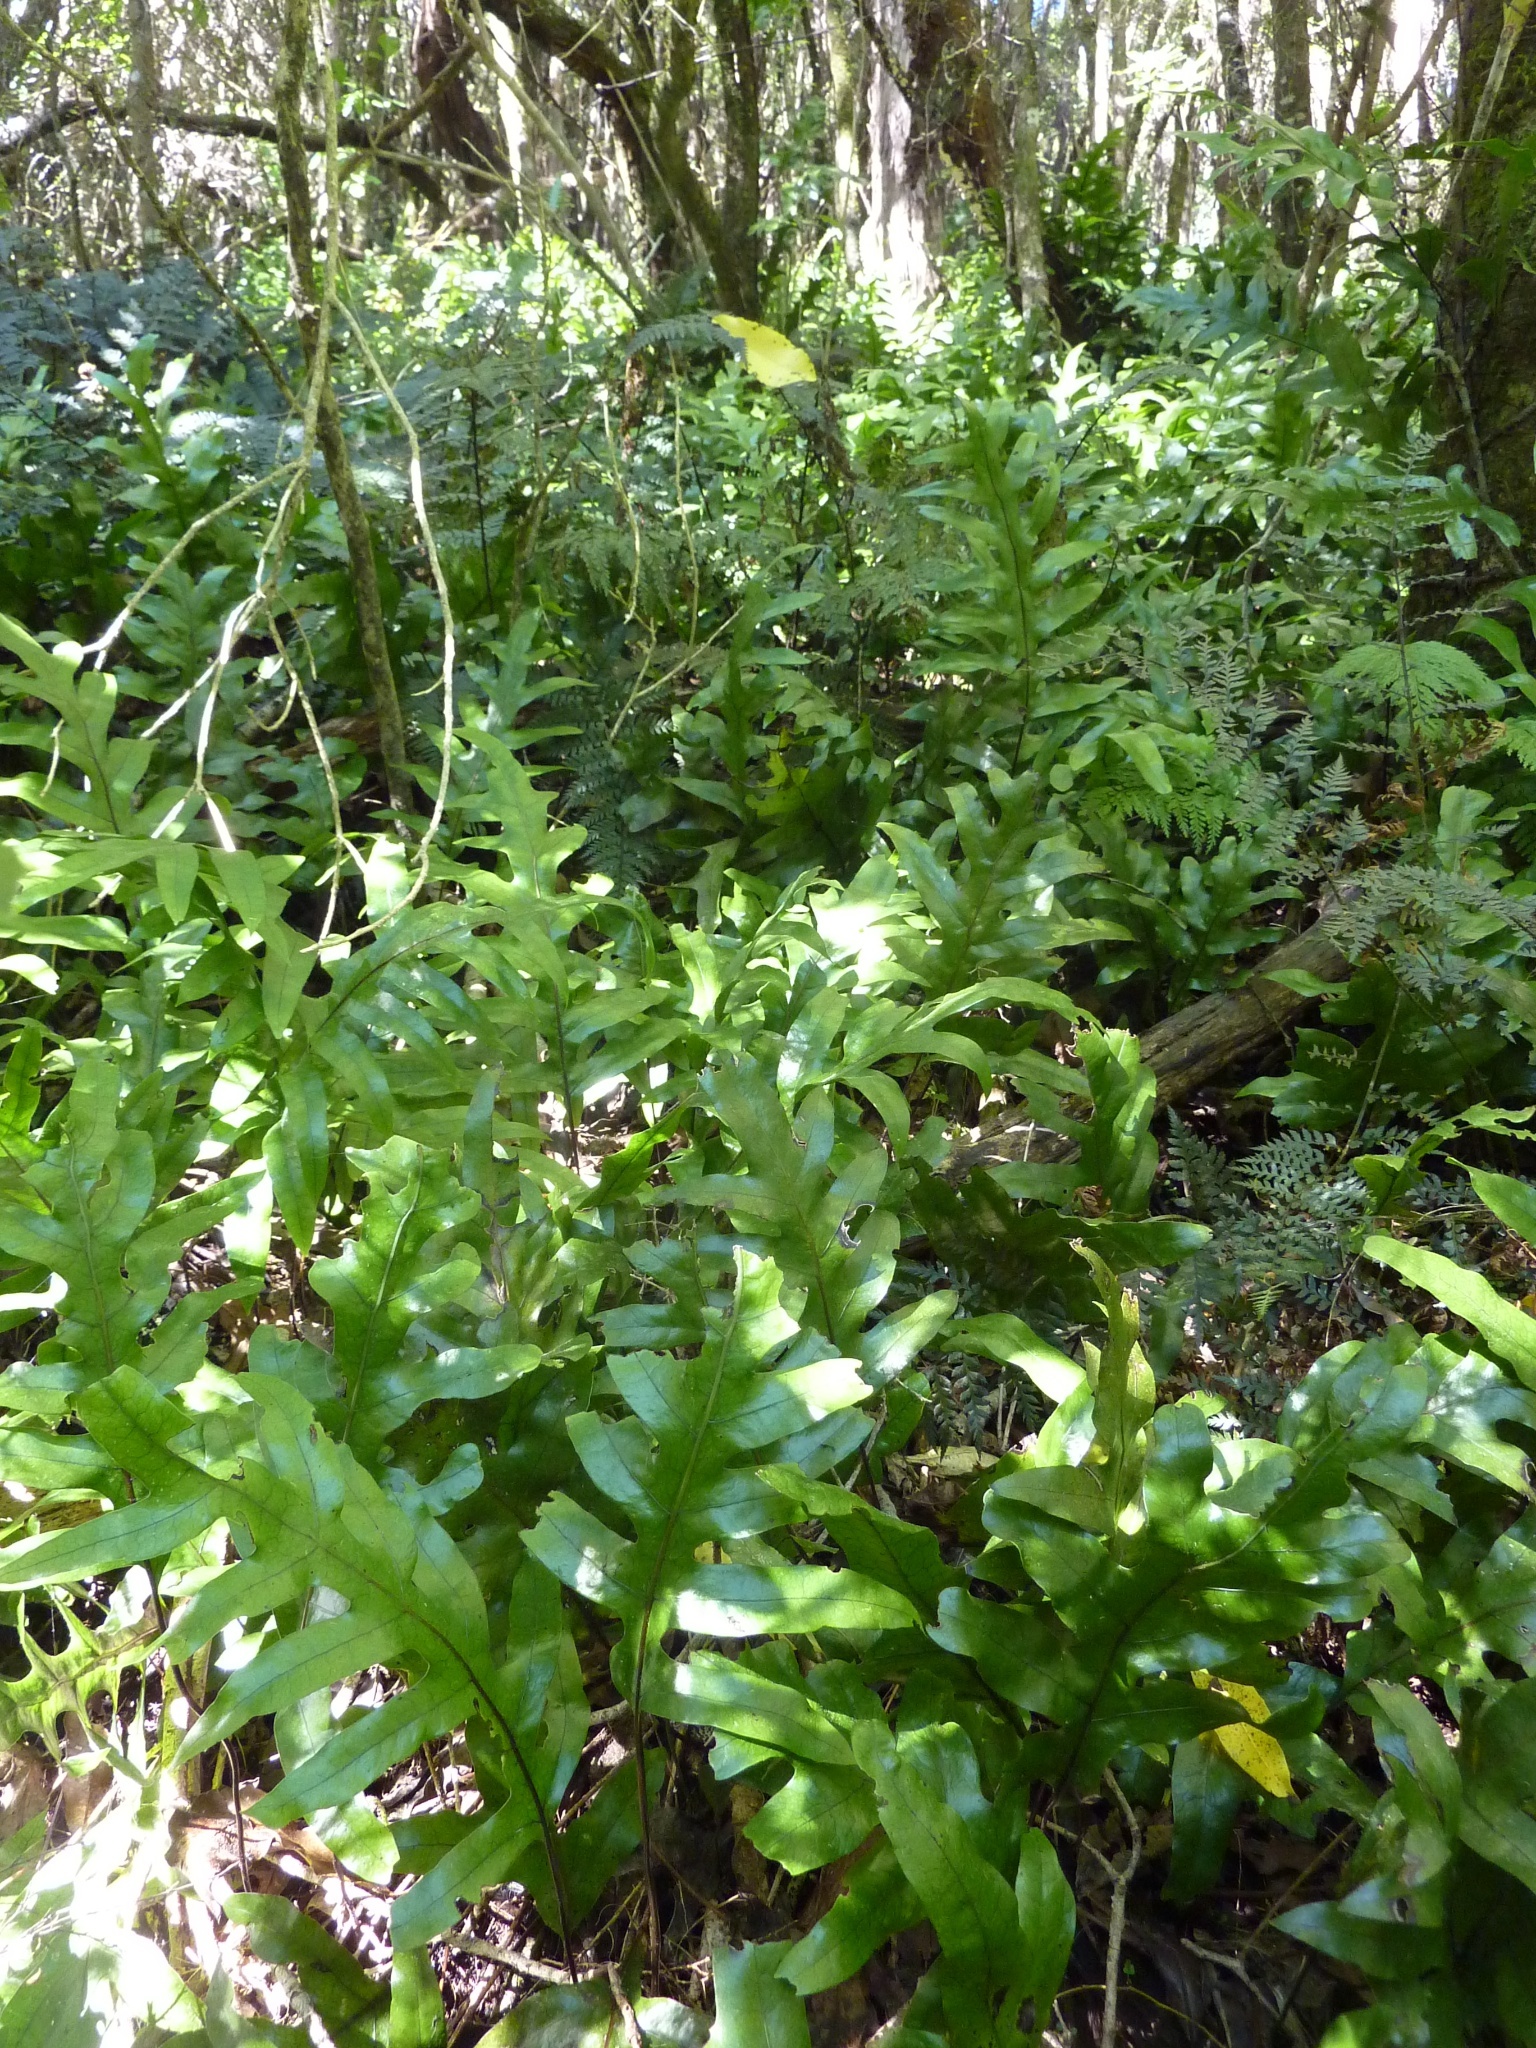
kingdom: Plantae
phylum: Tracheophyta
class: Polypodiopsida
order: Polypodiales
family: Polypodiaceae
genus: Lecanopteris
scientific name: Lecanopteris pustulata
